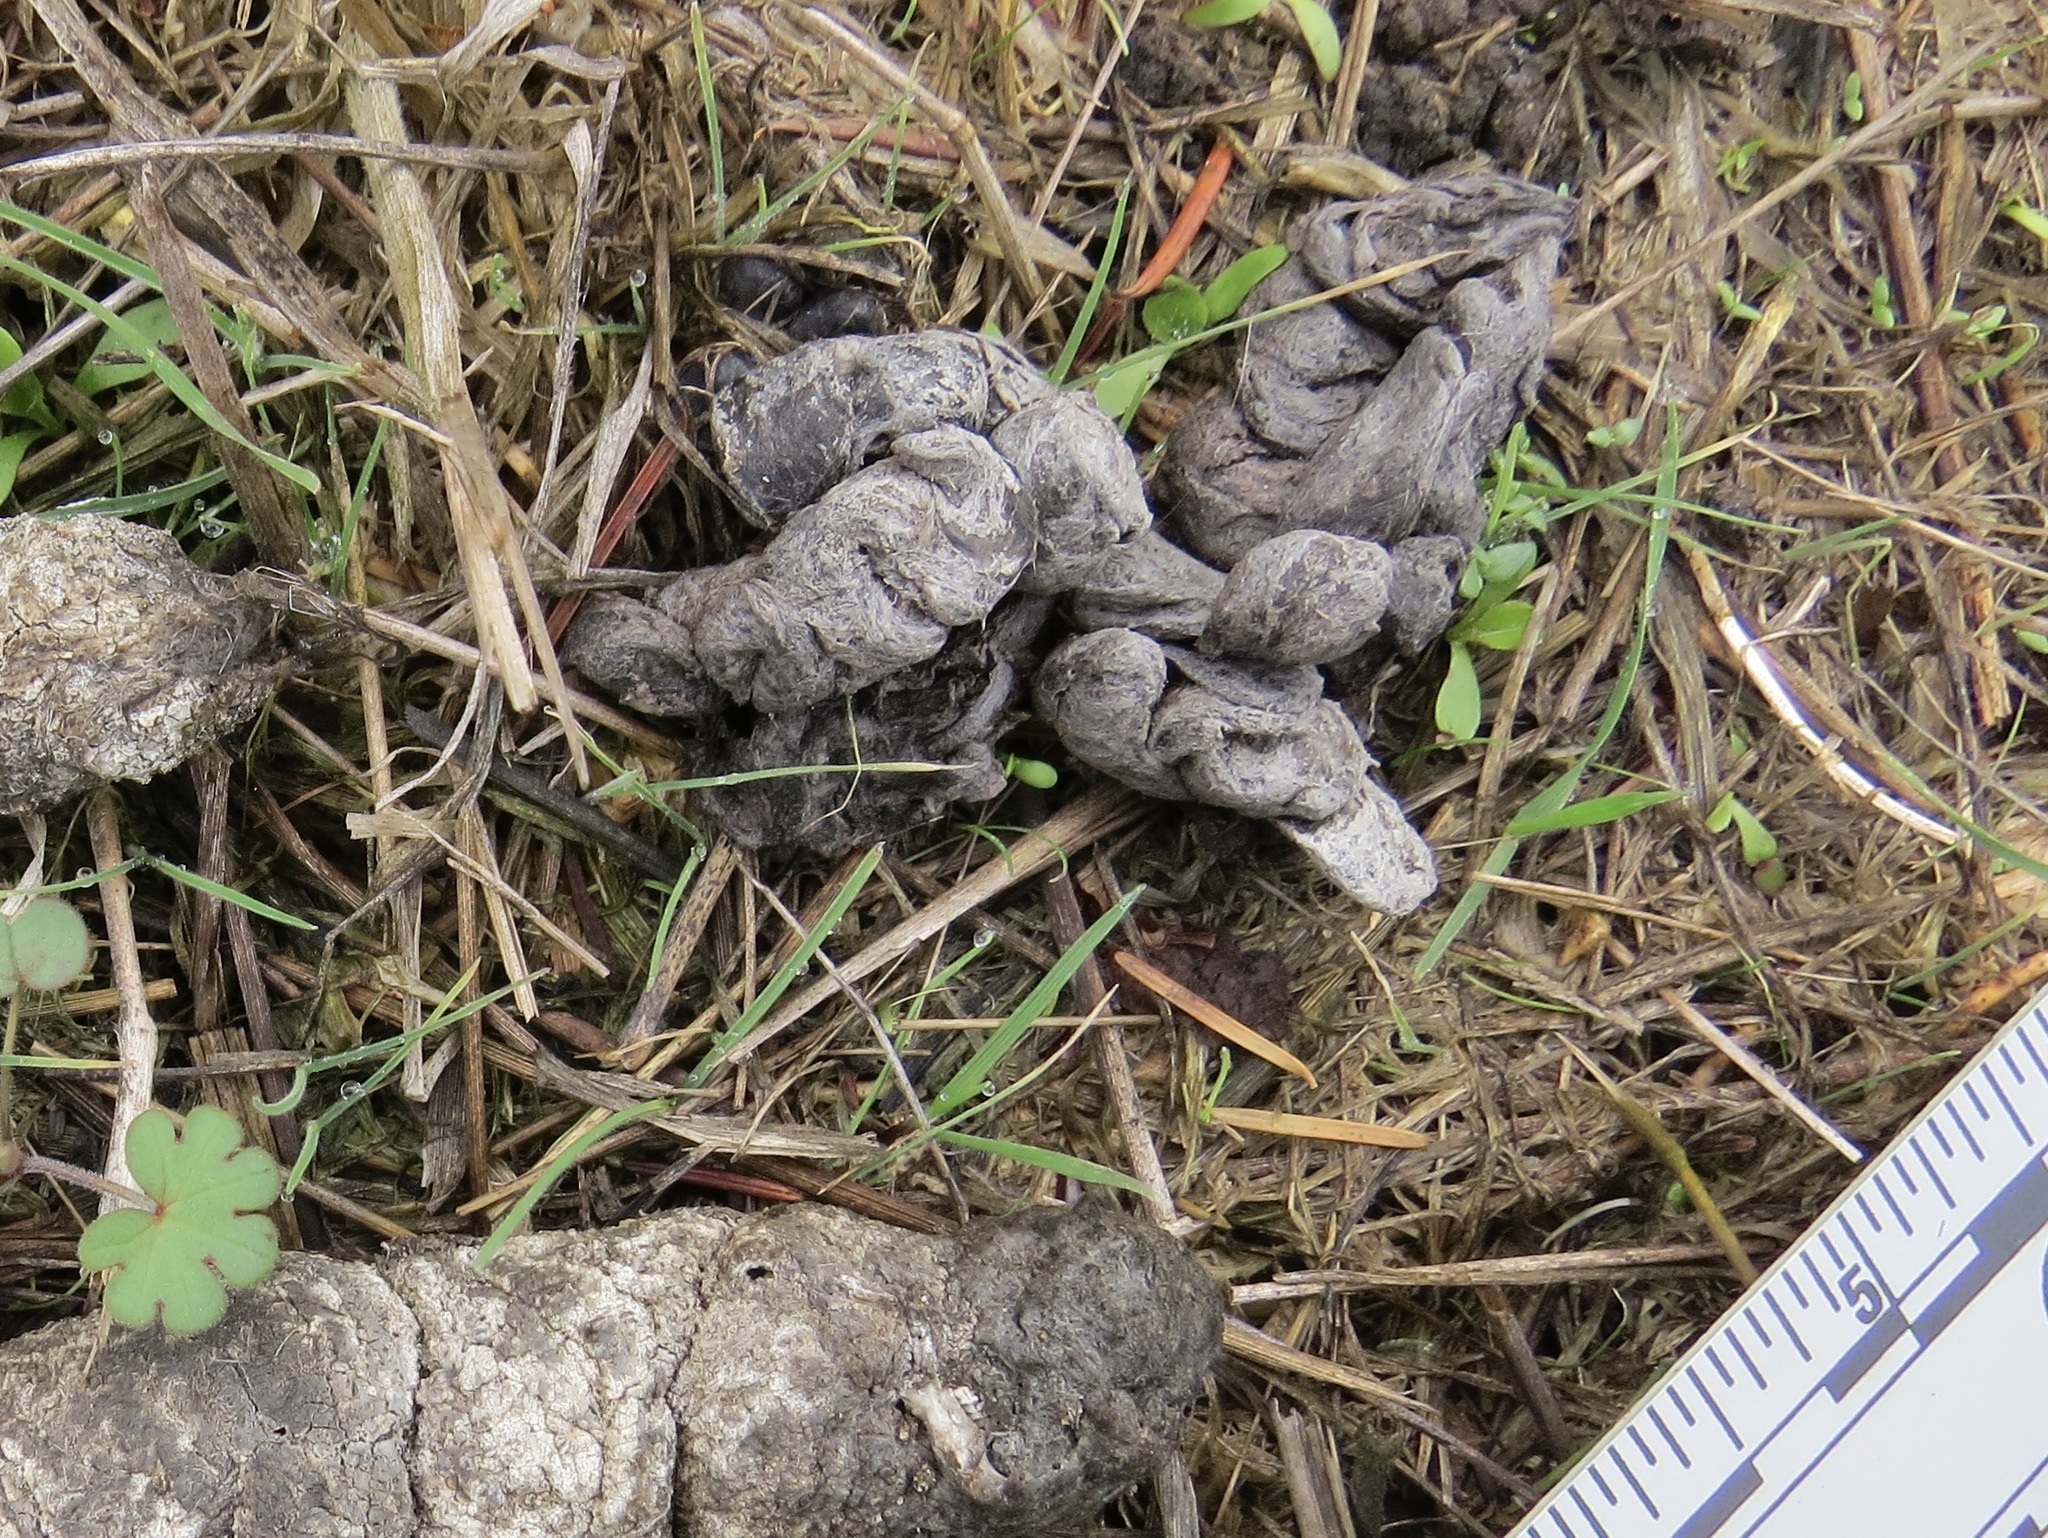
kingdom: Animalia
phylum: Chordata
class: Mammalia
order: Carnivora
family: Canidae
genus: Urocyon
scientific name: Urocyon cinereoargenteus
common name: Gray fox
